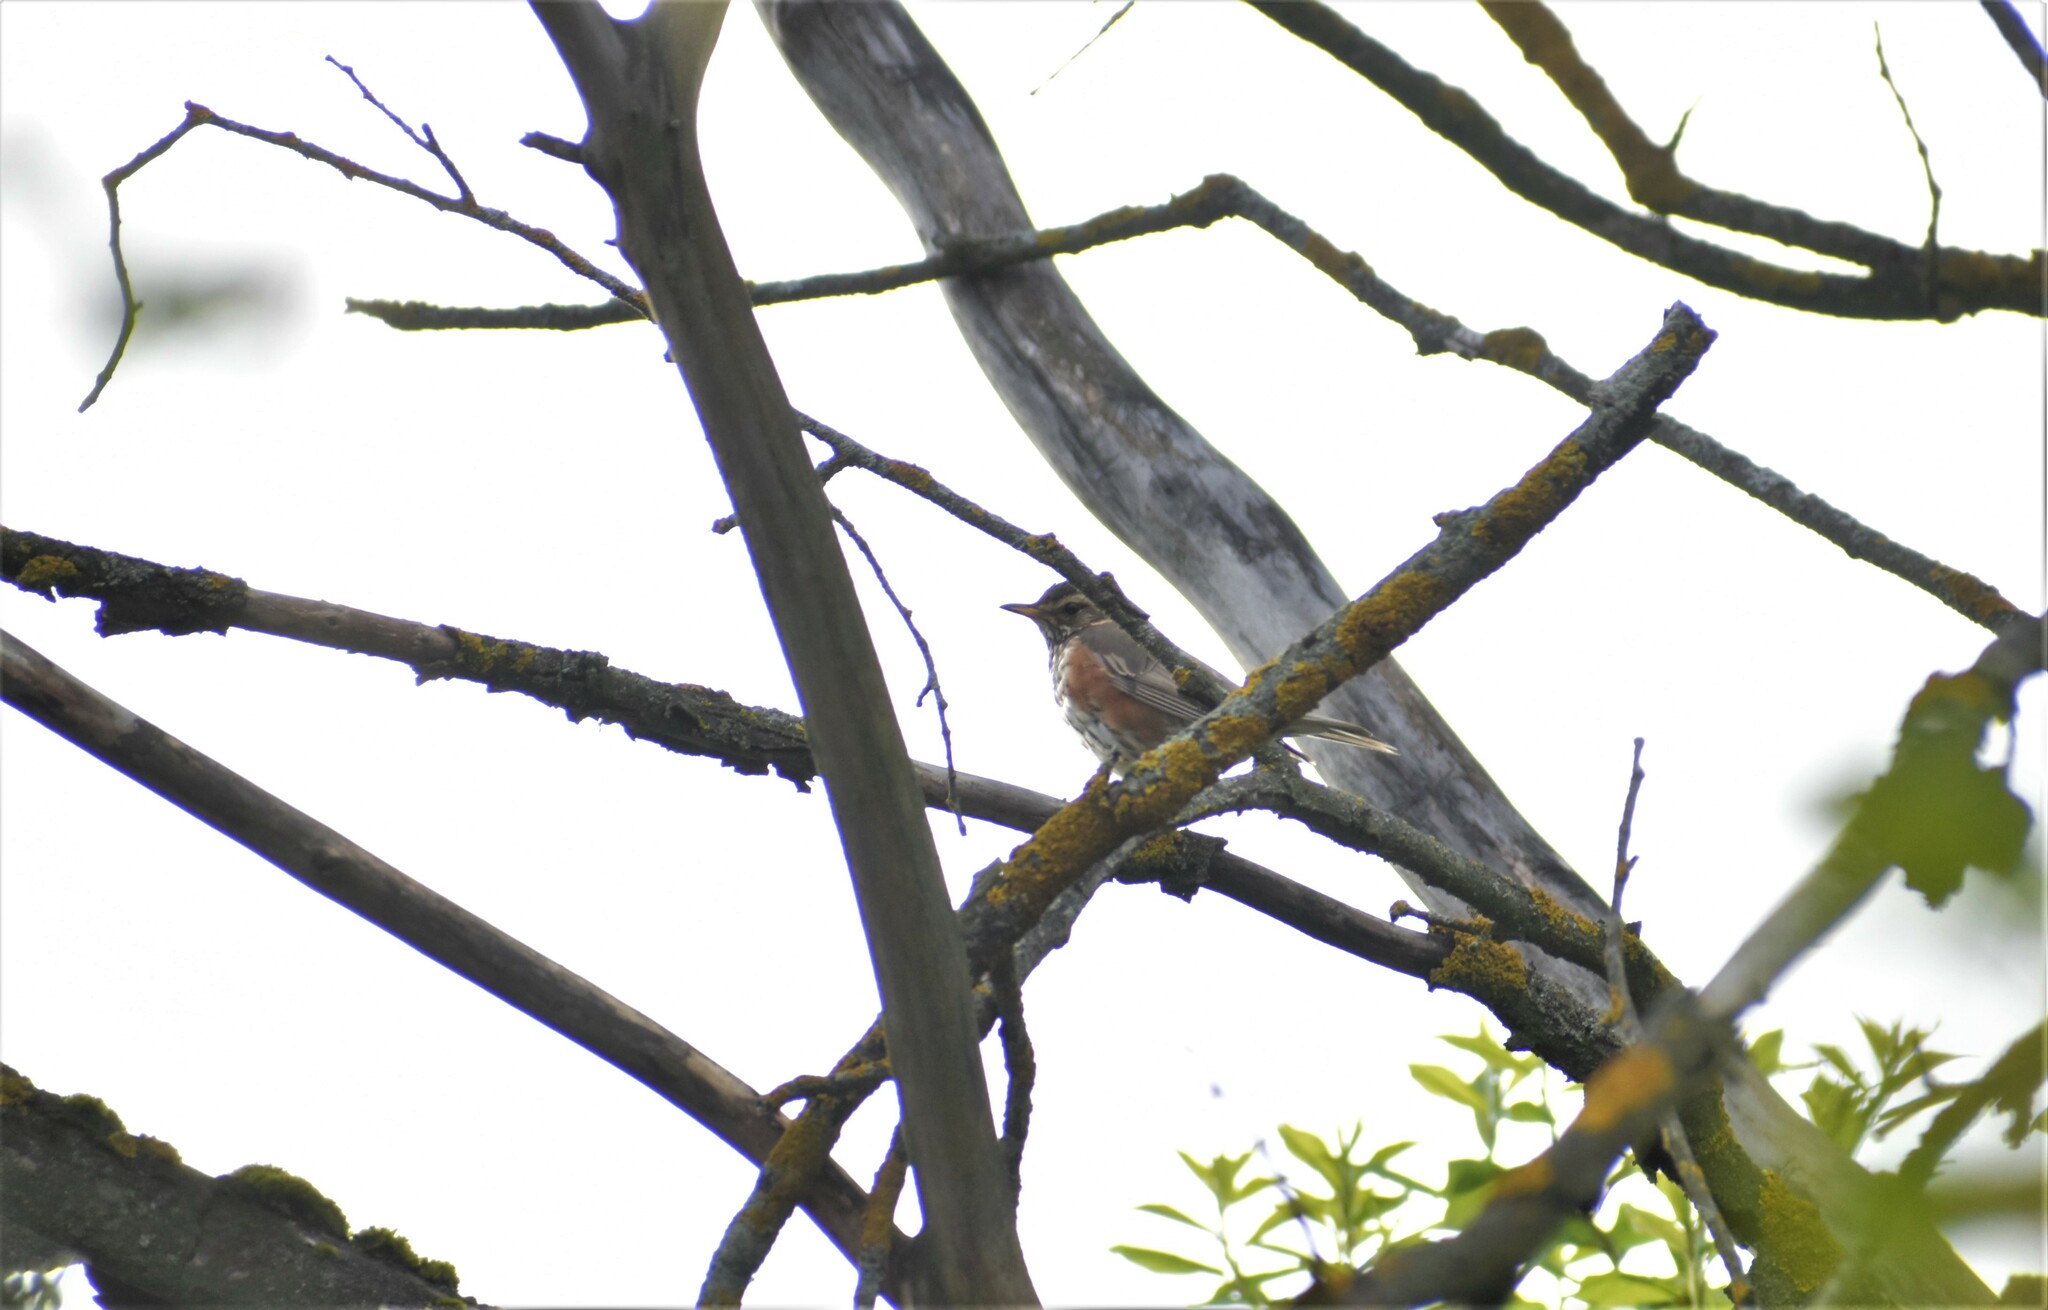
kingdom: Animalia
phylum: Chordata
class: Aves
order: Passeriformes
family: Turdidae
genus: Turdus
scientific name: Turdus iliacus
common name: Redwing
